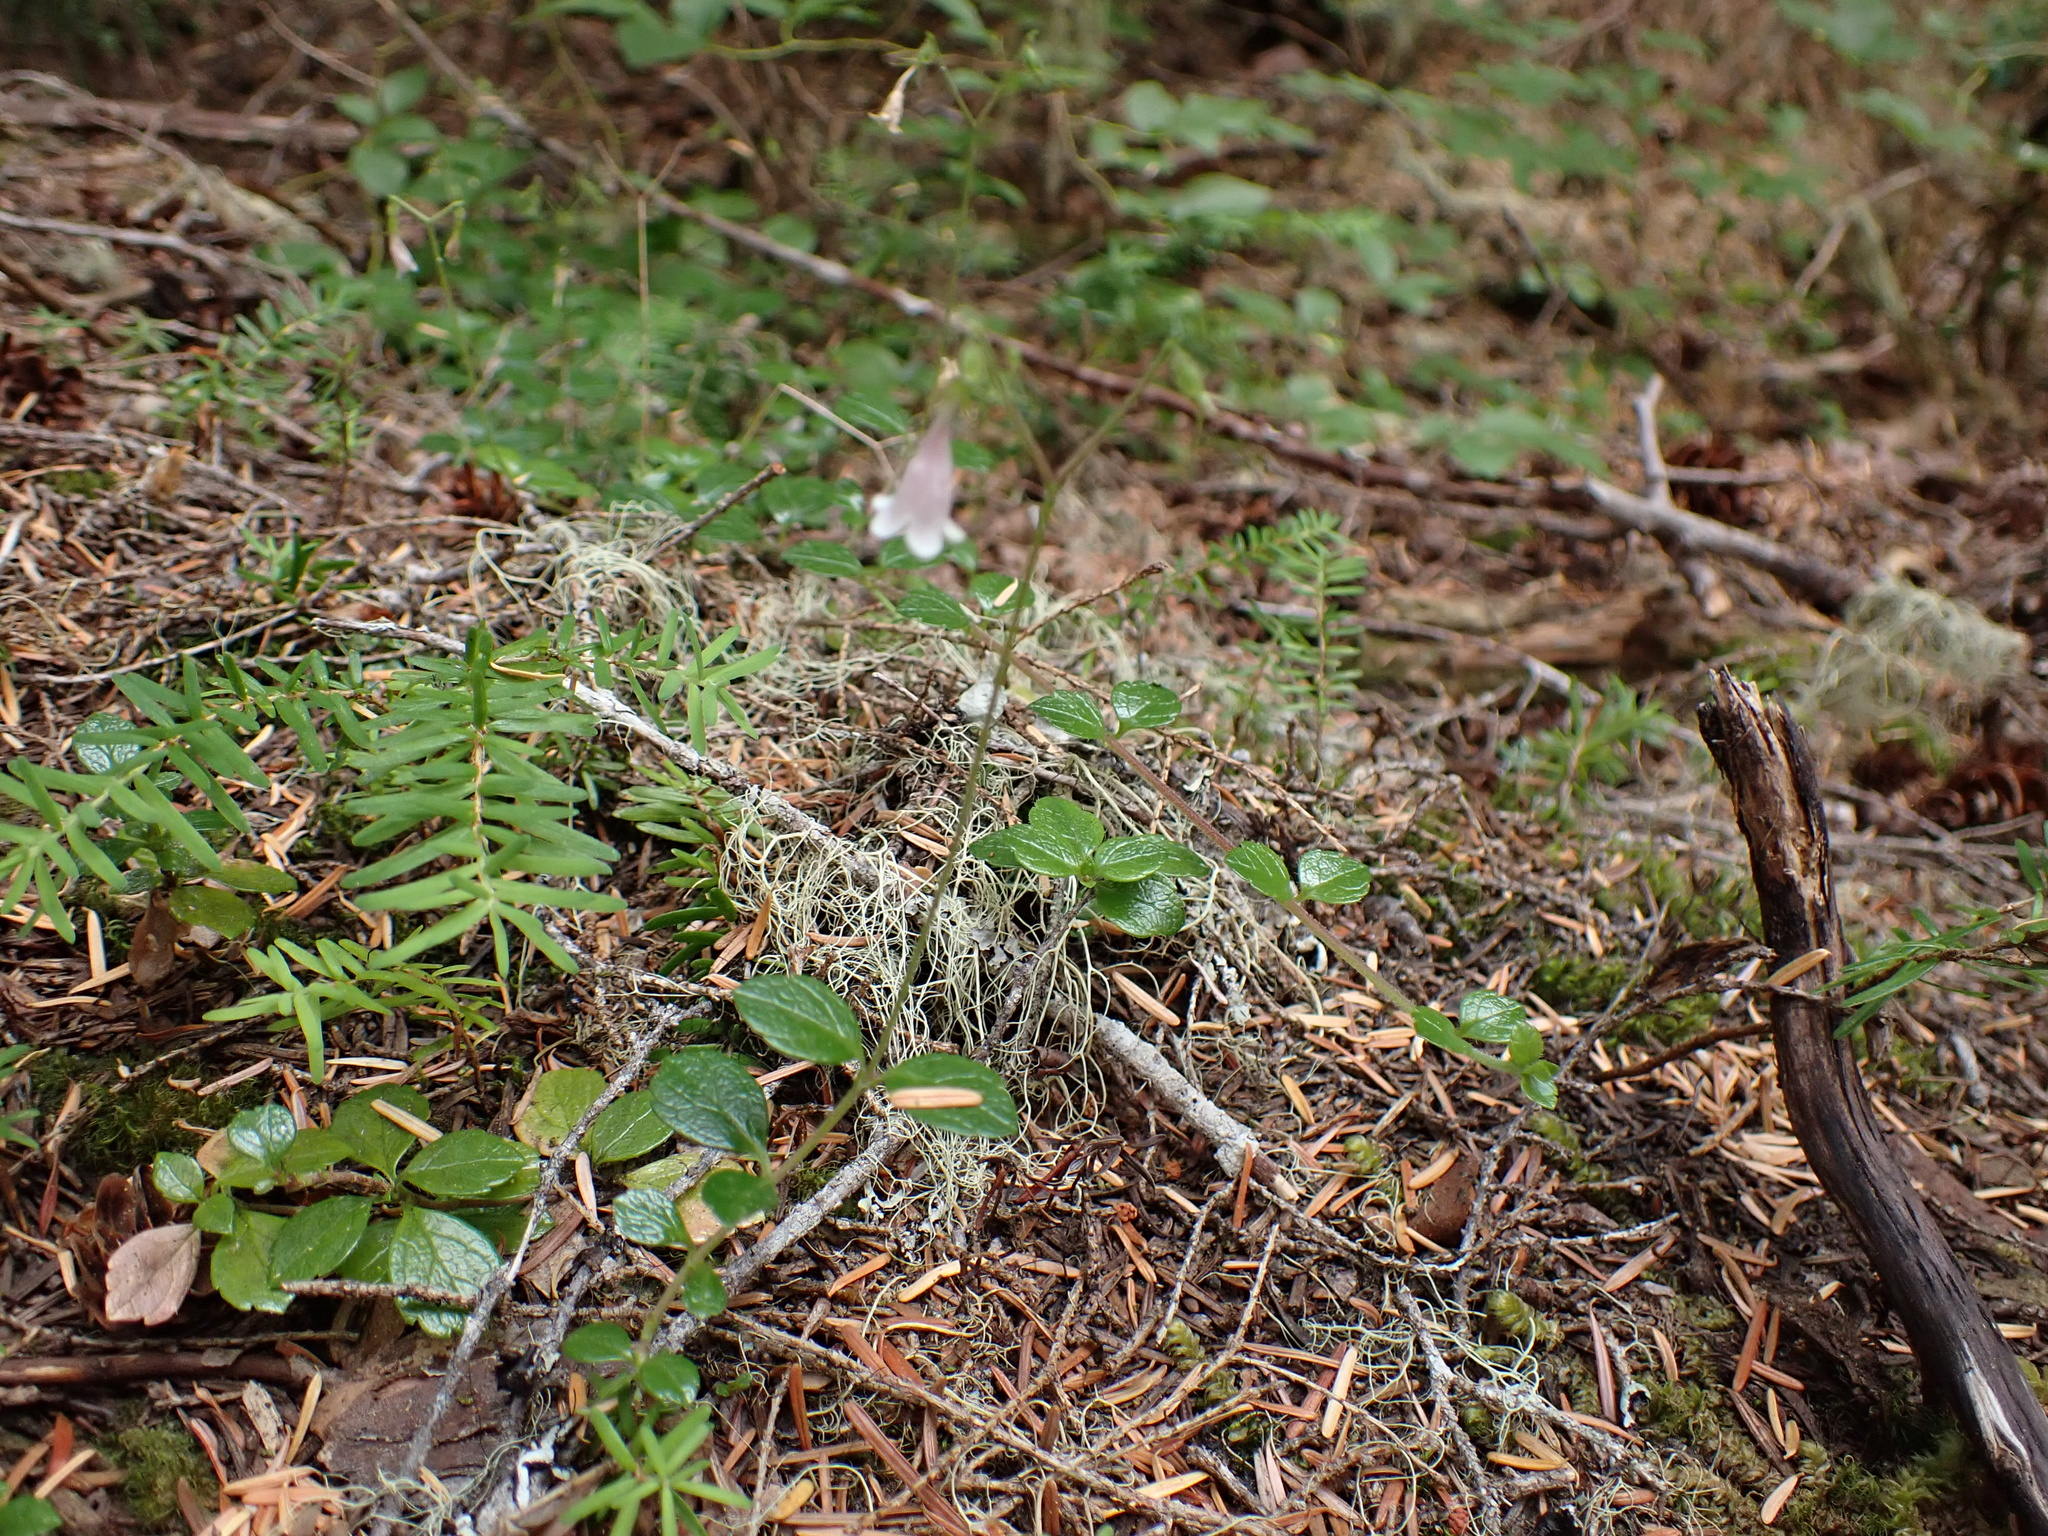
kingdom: Plantae
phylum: Tracheophyta
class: Magnoliopsida
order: Dipsacales
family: Caprifoliaceae
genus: Linnaea
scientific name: Linnaea borealis
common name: Twinflower
